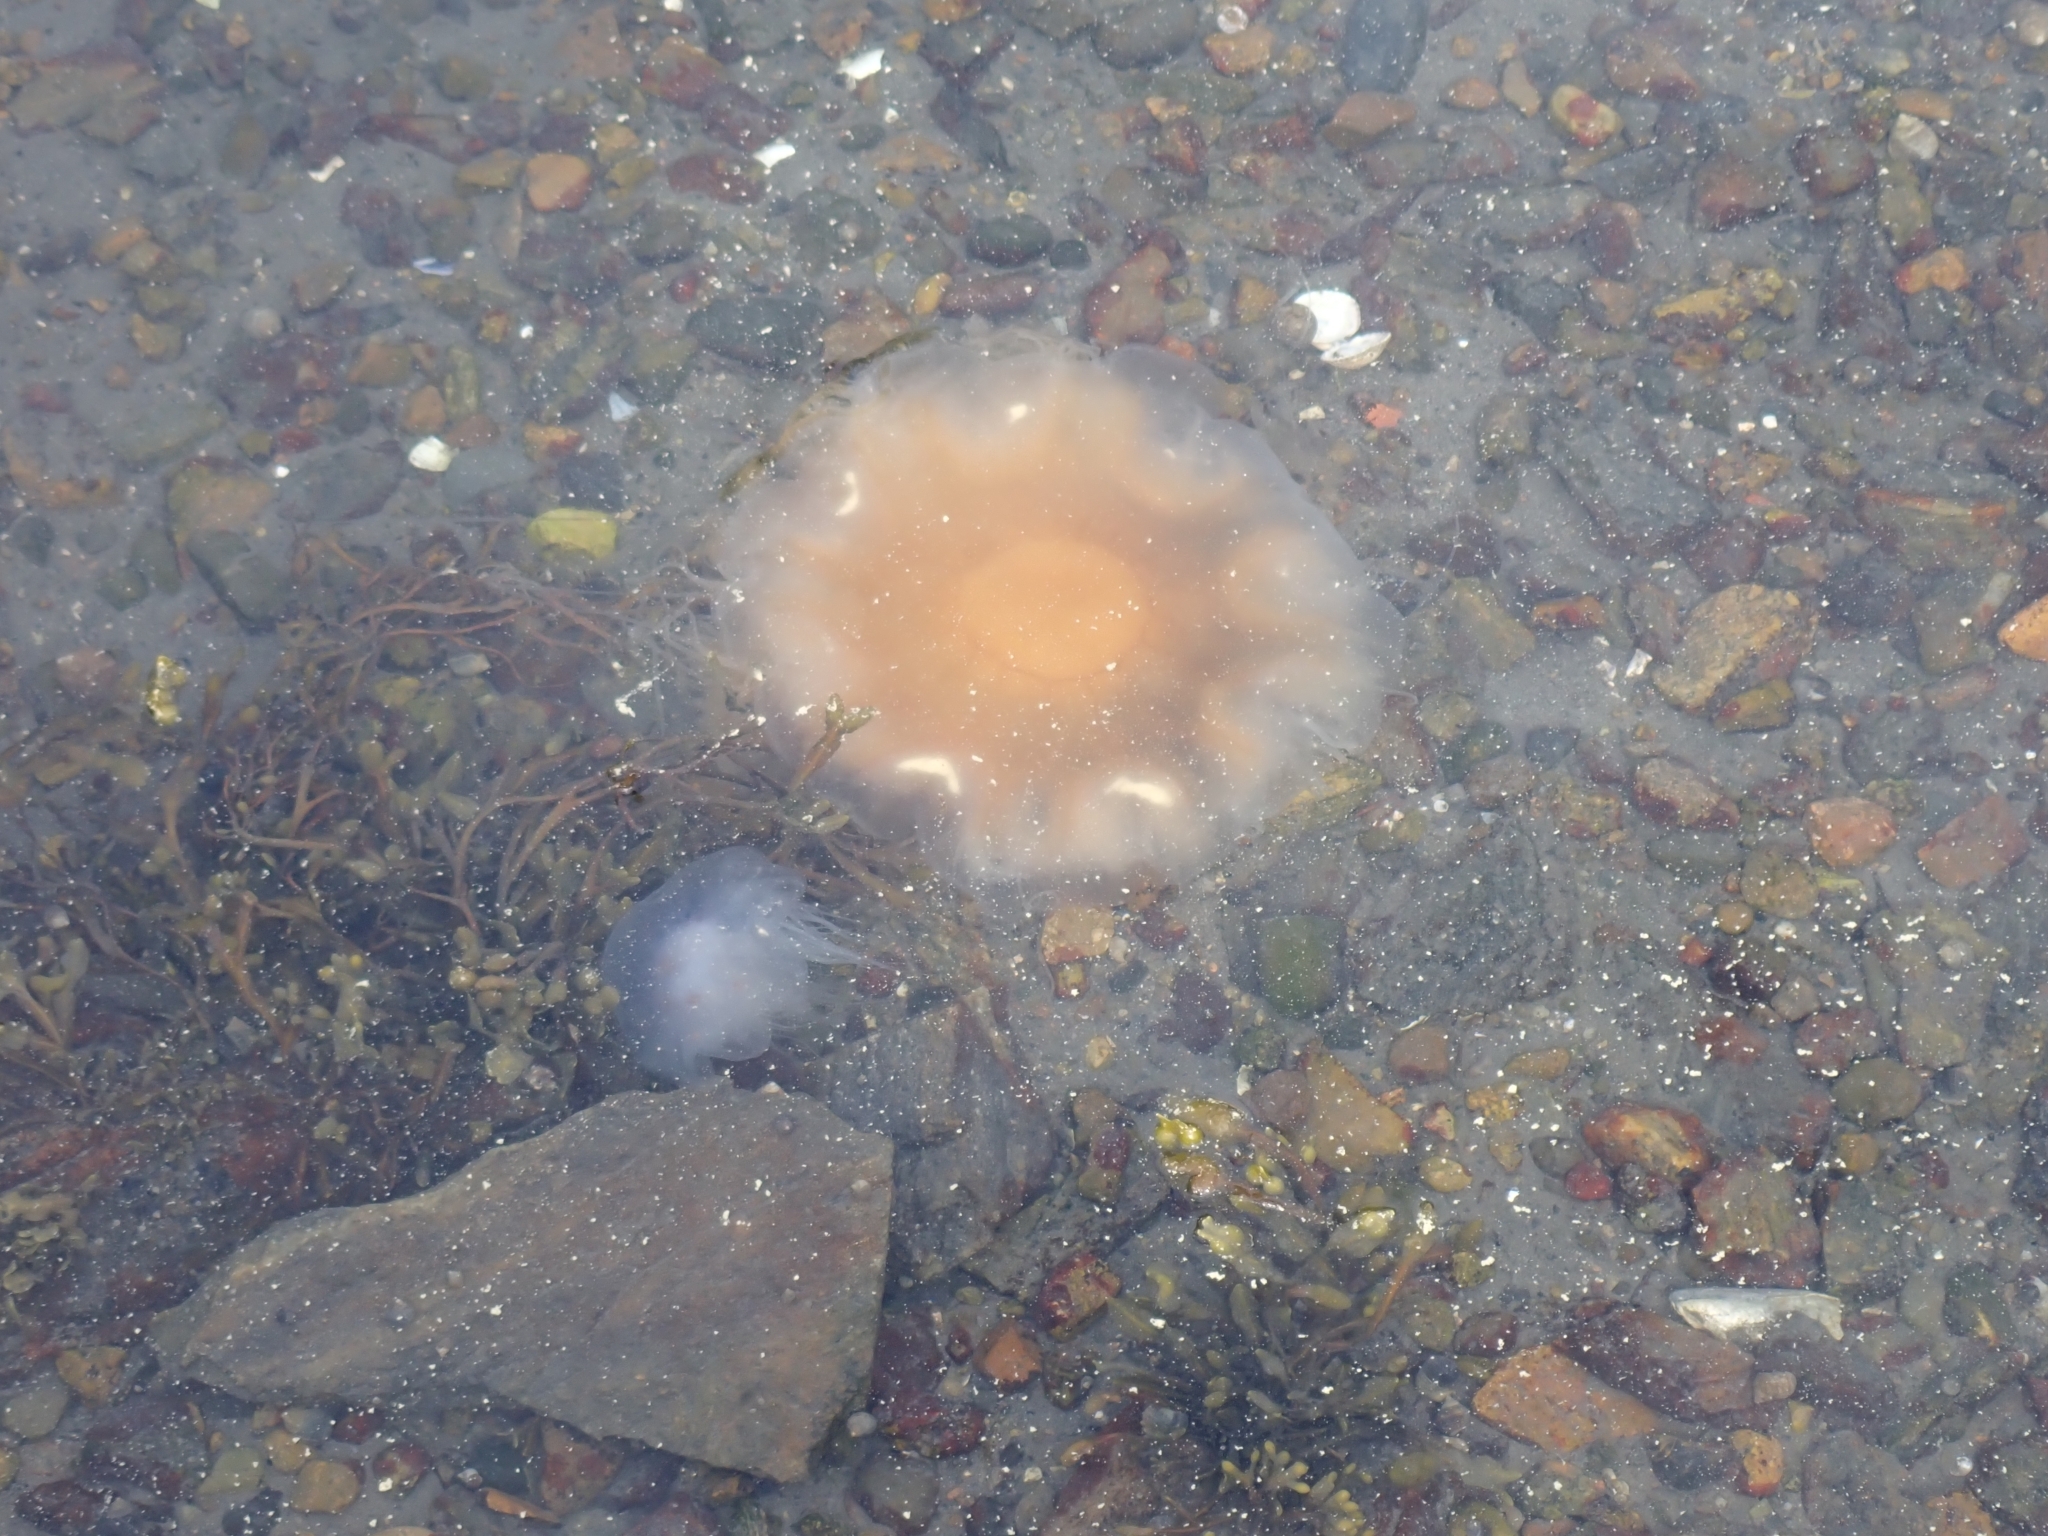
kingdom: Animalia
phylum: Cnidaria
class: Scyphozoa
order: Semaeostomeae
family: Cyaneidae
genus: Cyanea
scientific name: Cyanea capillata
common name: Lion's mane jellyfish
